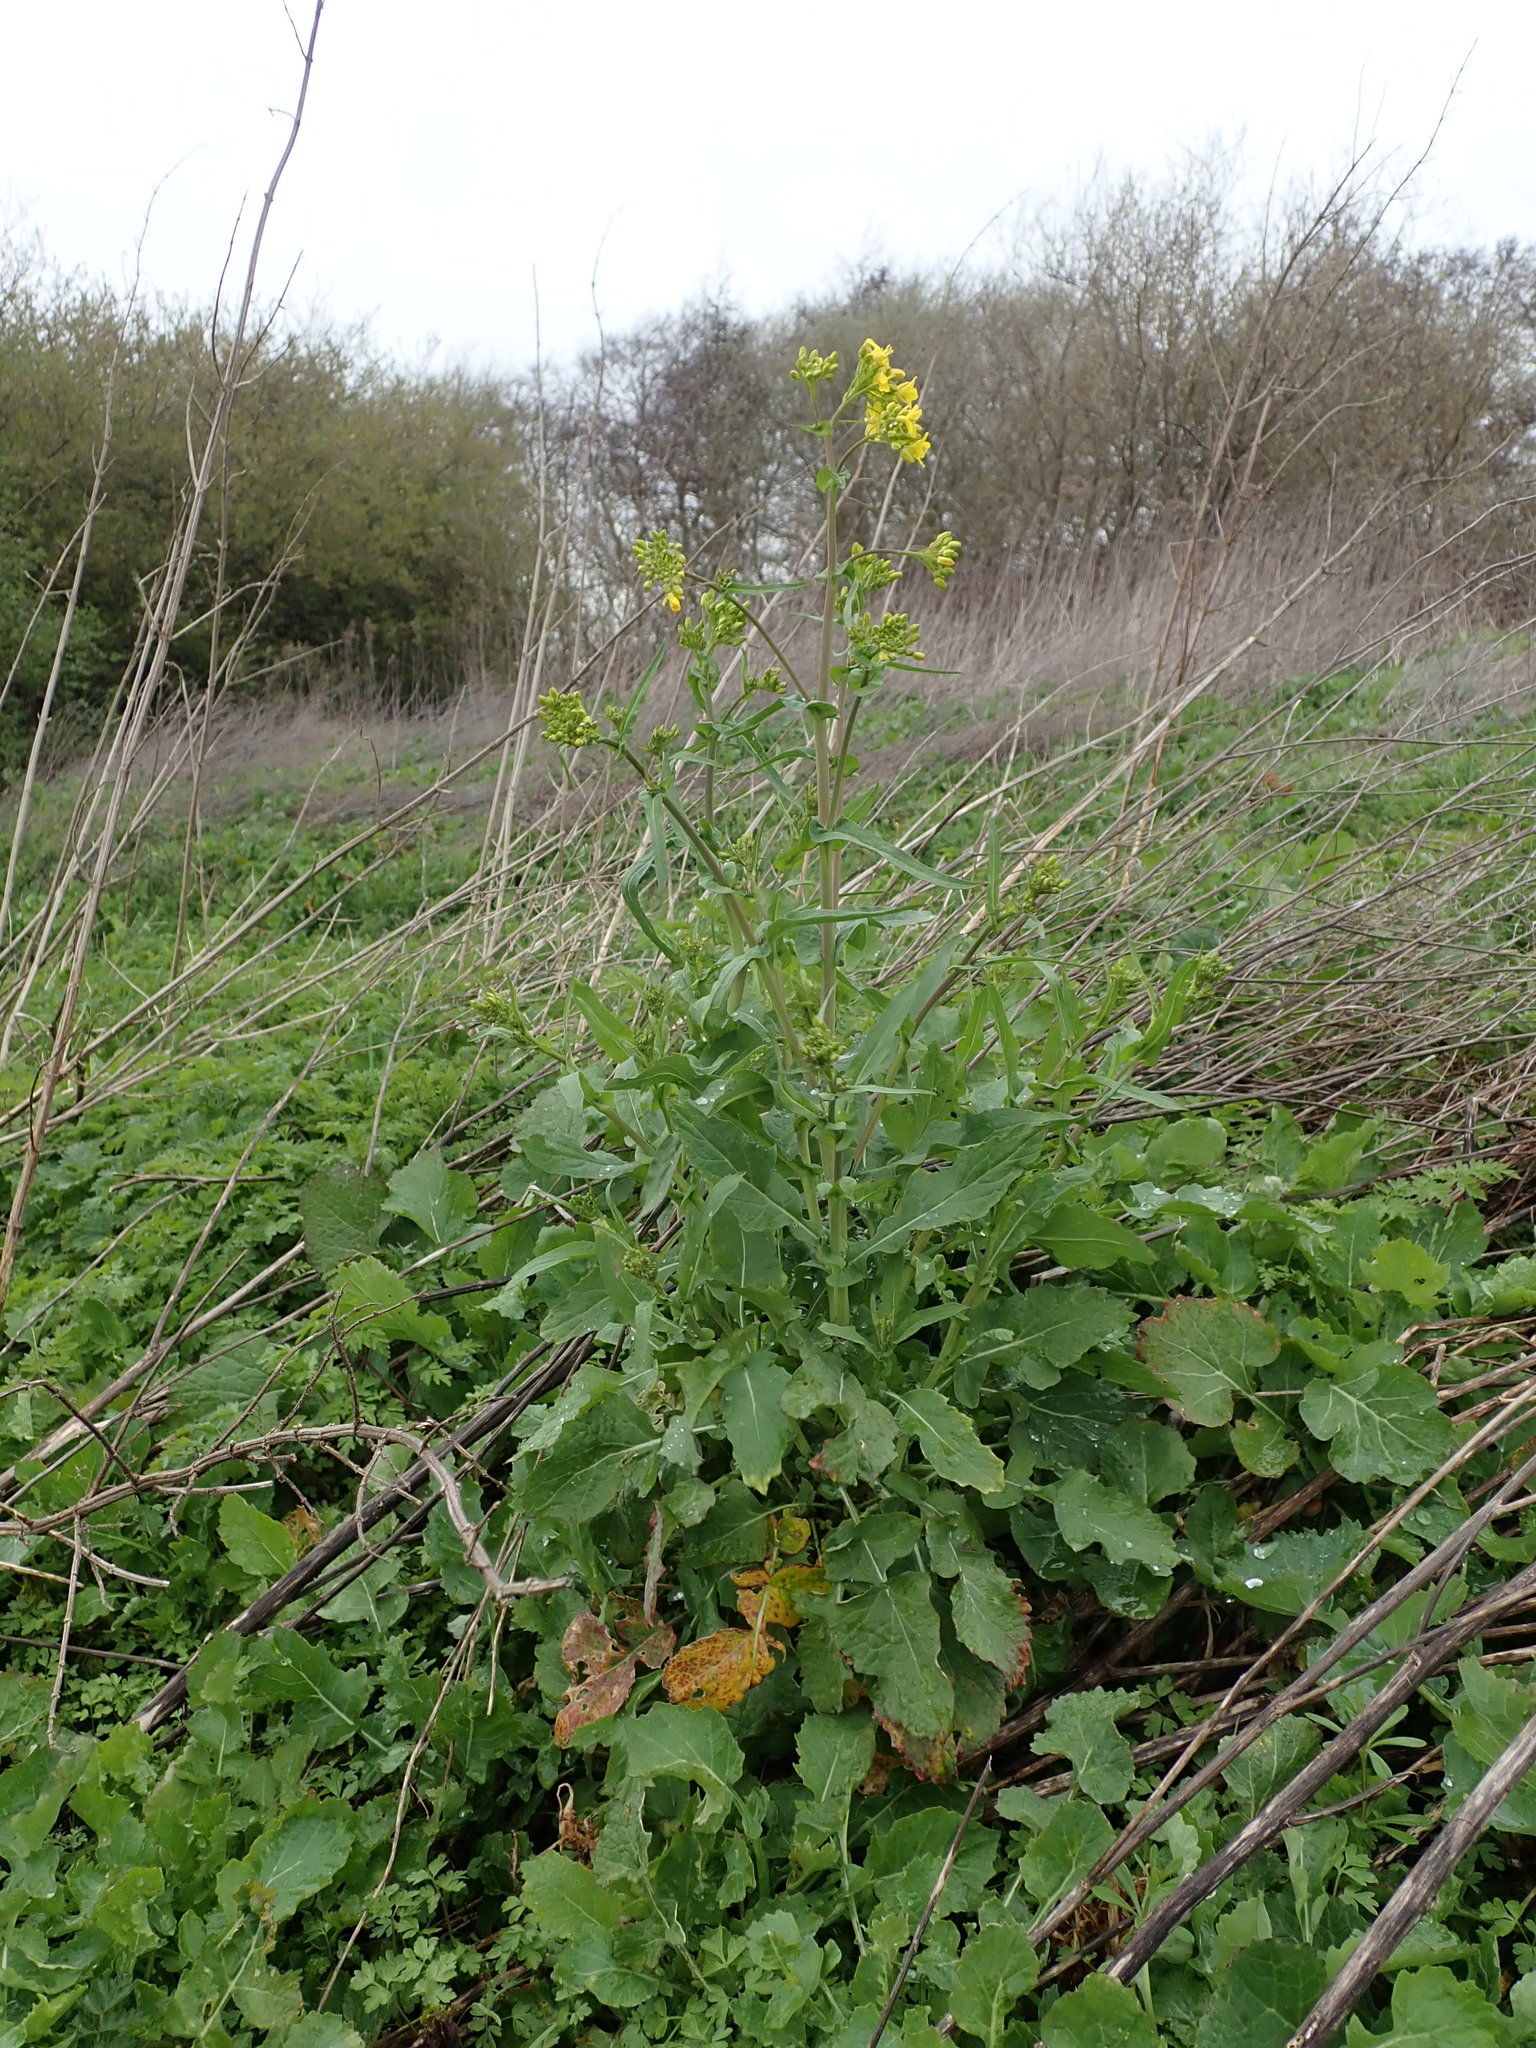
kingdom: Plantae
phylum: Tracheophyta
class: Magnoliopsida
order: Brassicales
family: Brassicaceae
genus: Brassica
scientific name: Brassica rapa
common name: Field mustard
